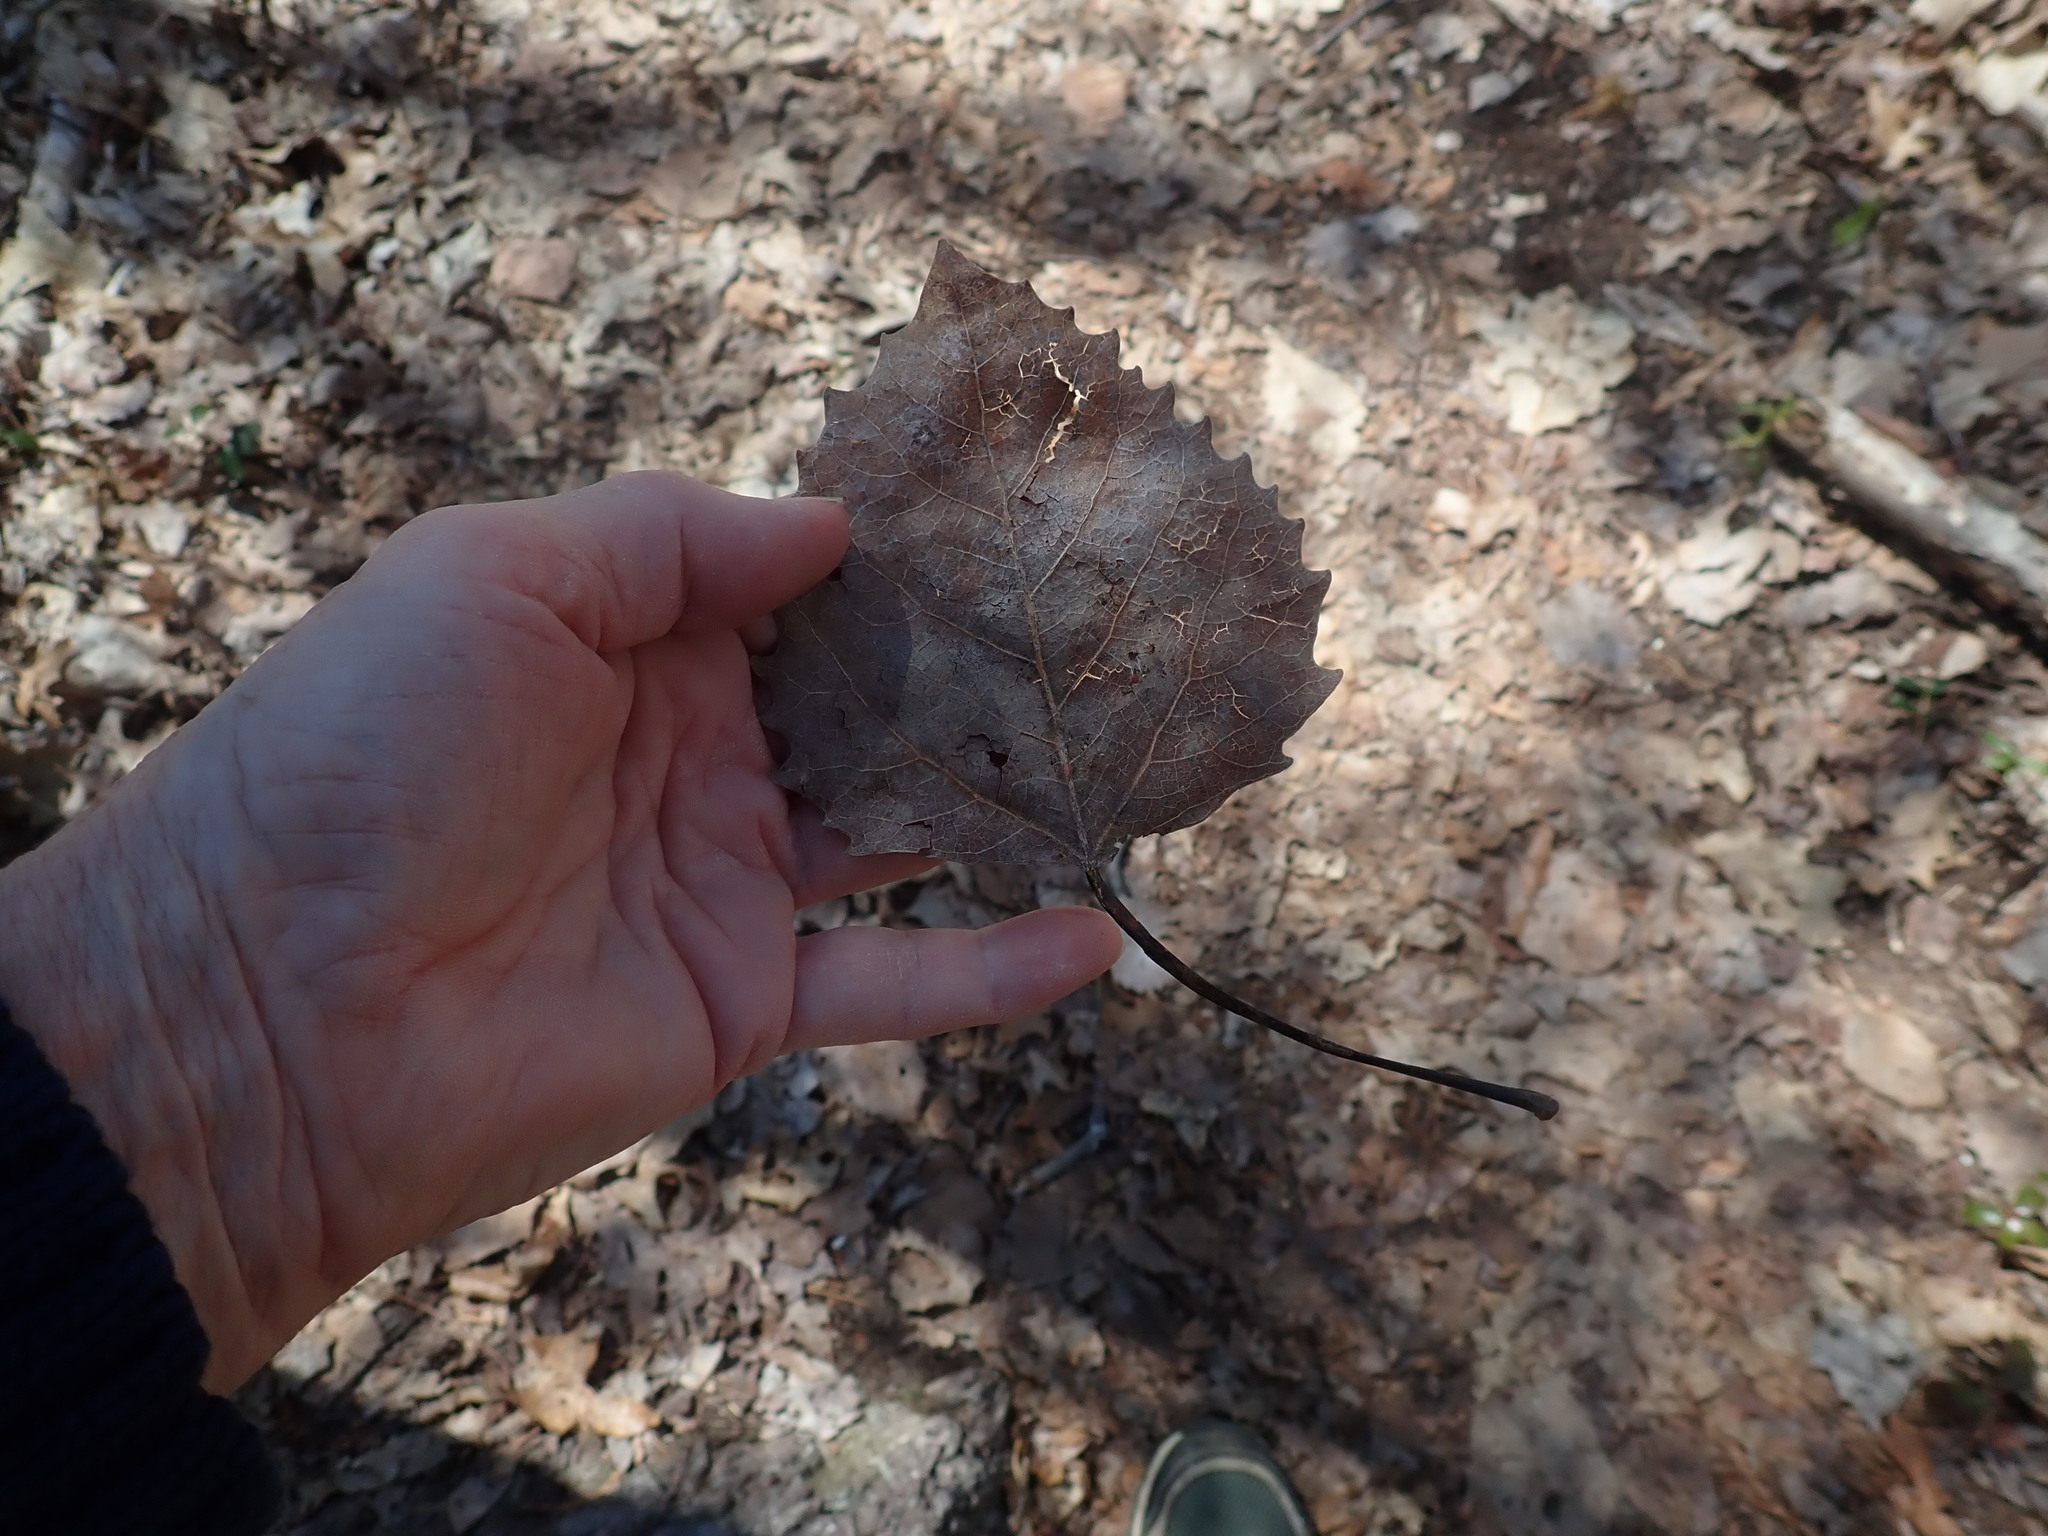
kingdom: Plantae
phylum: Tracheophyta
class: Magnoliopsida
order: Malpighiales
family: Salicaceae
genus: Populus
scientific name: Populus grandidentata
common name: Bigtooth aspen
